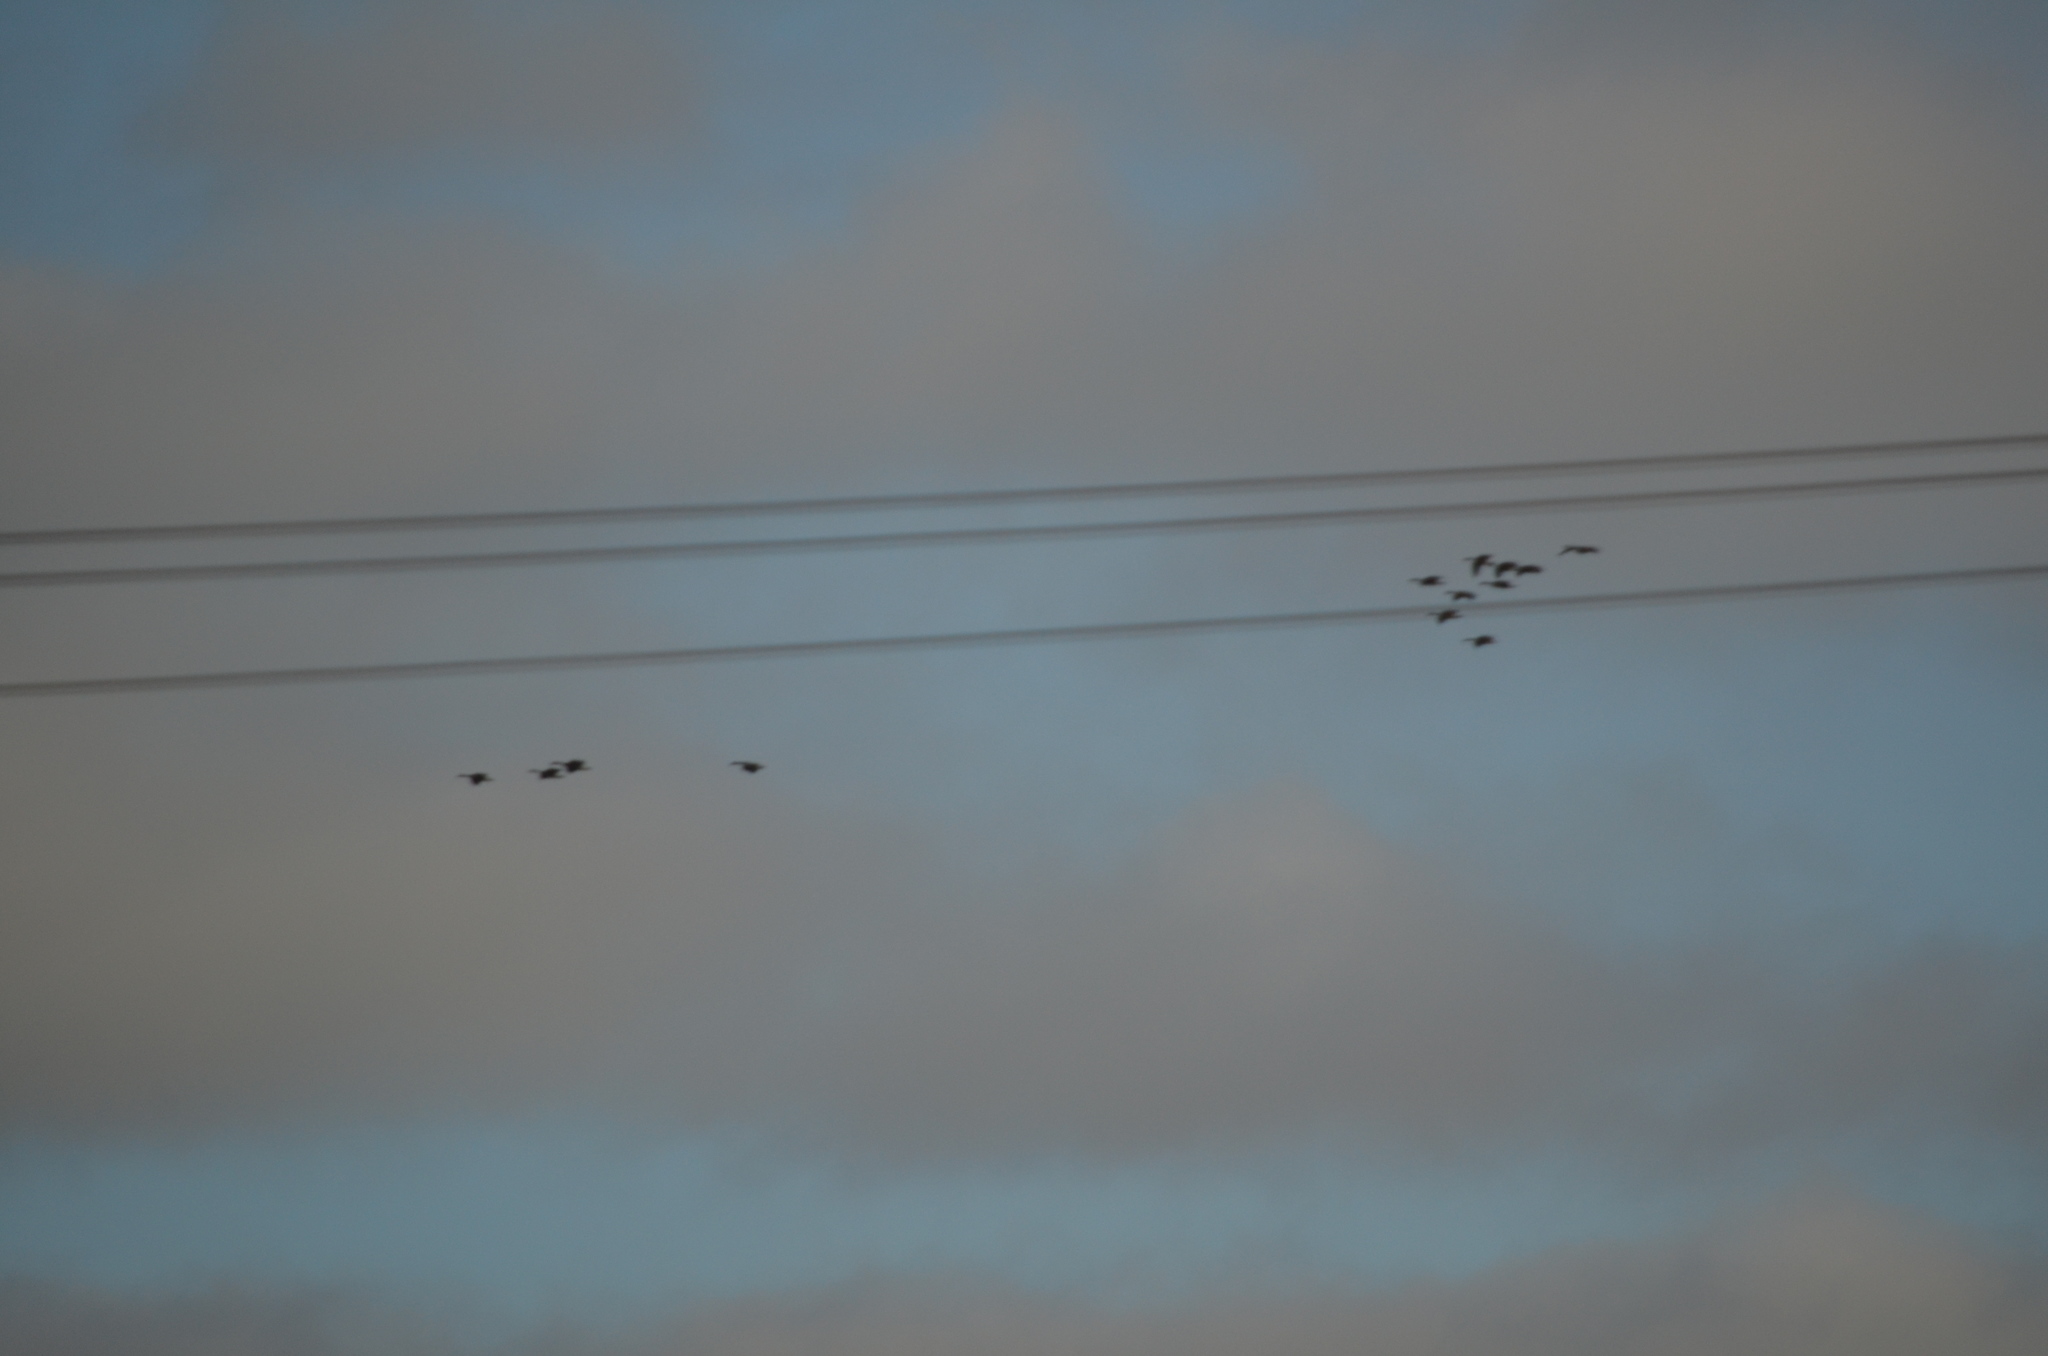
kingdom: Animalia
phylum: Chordata
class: Aves
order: Anseriformes
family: Anatidae
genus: Branta
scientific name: Branta canadensis
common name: Canada goose
